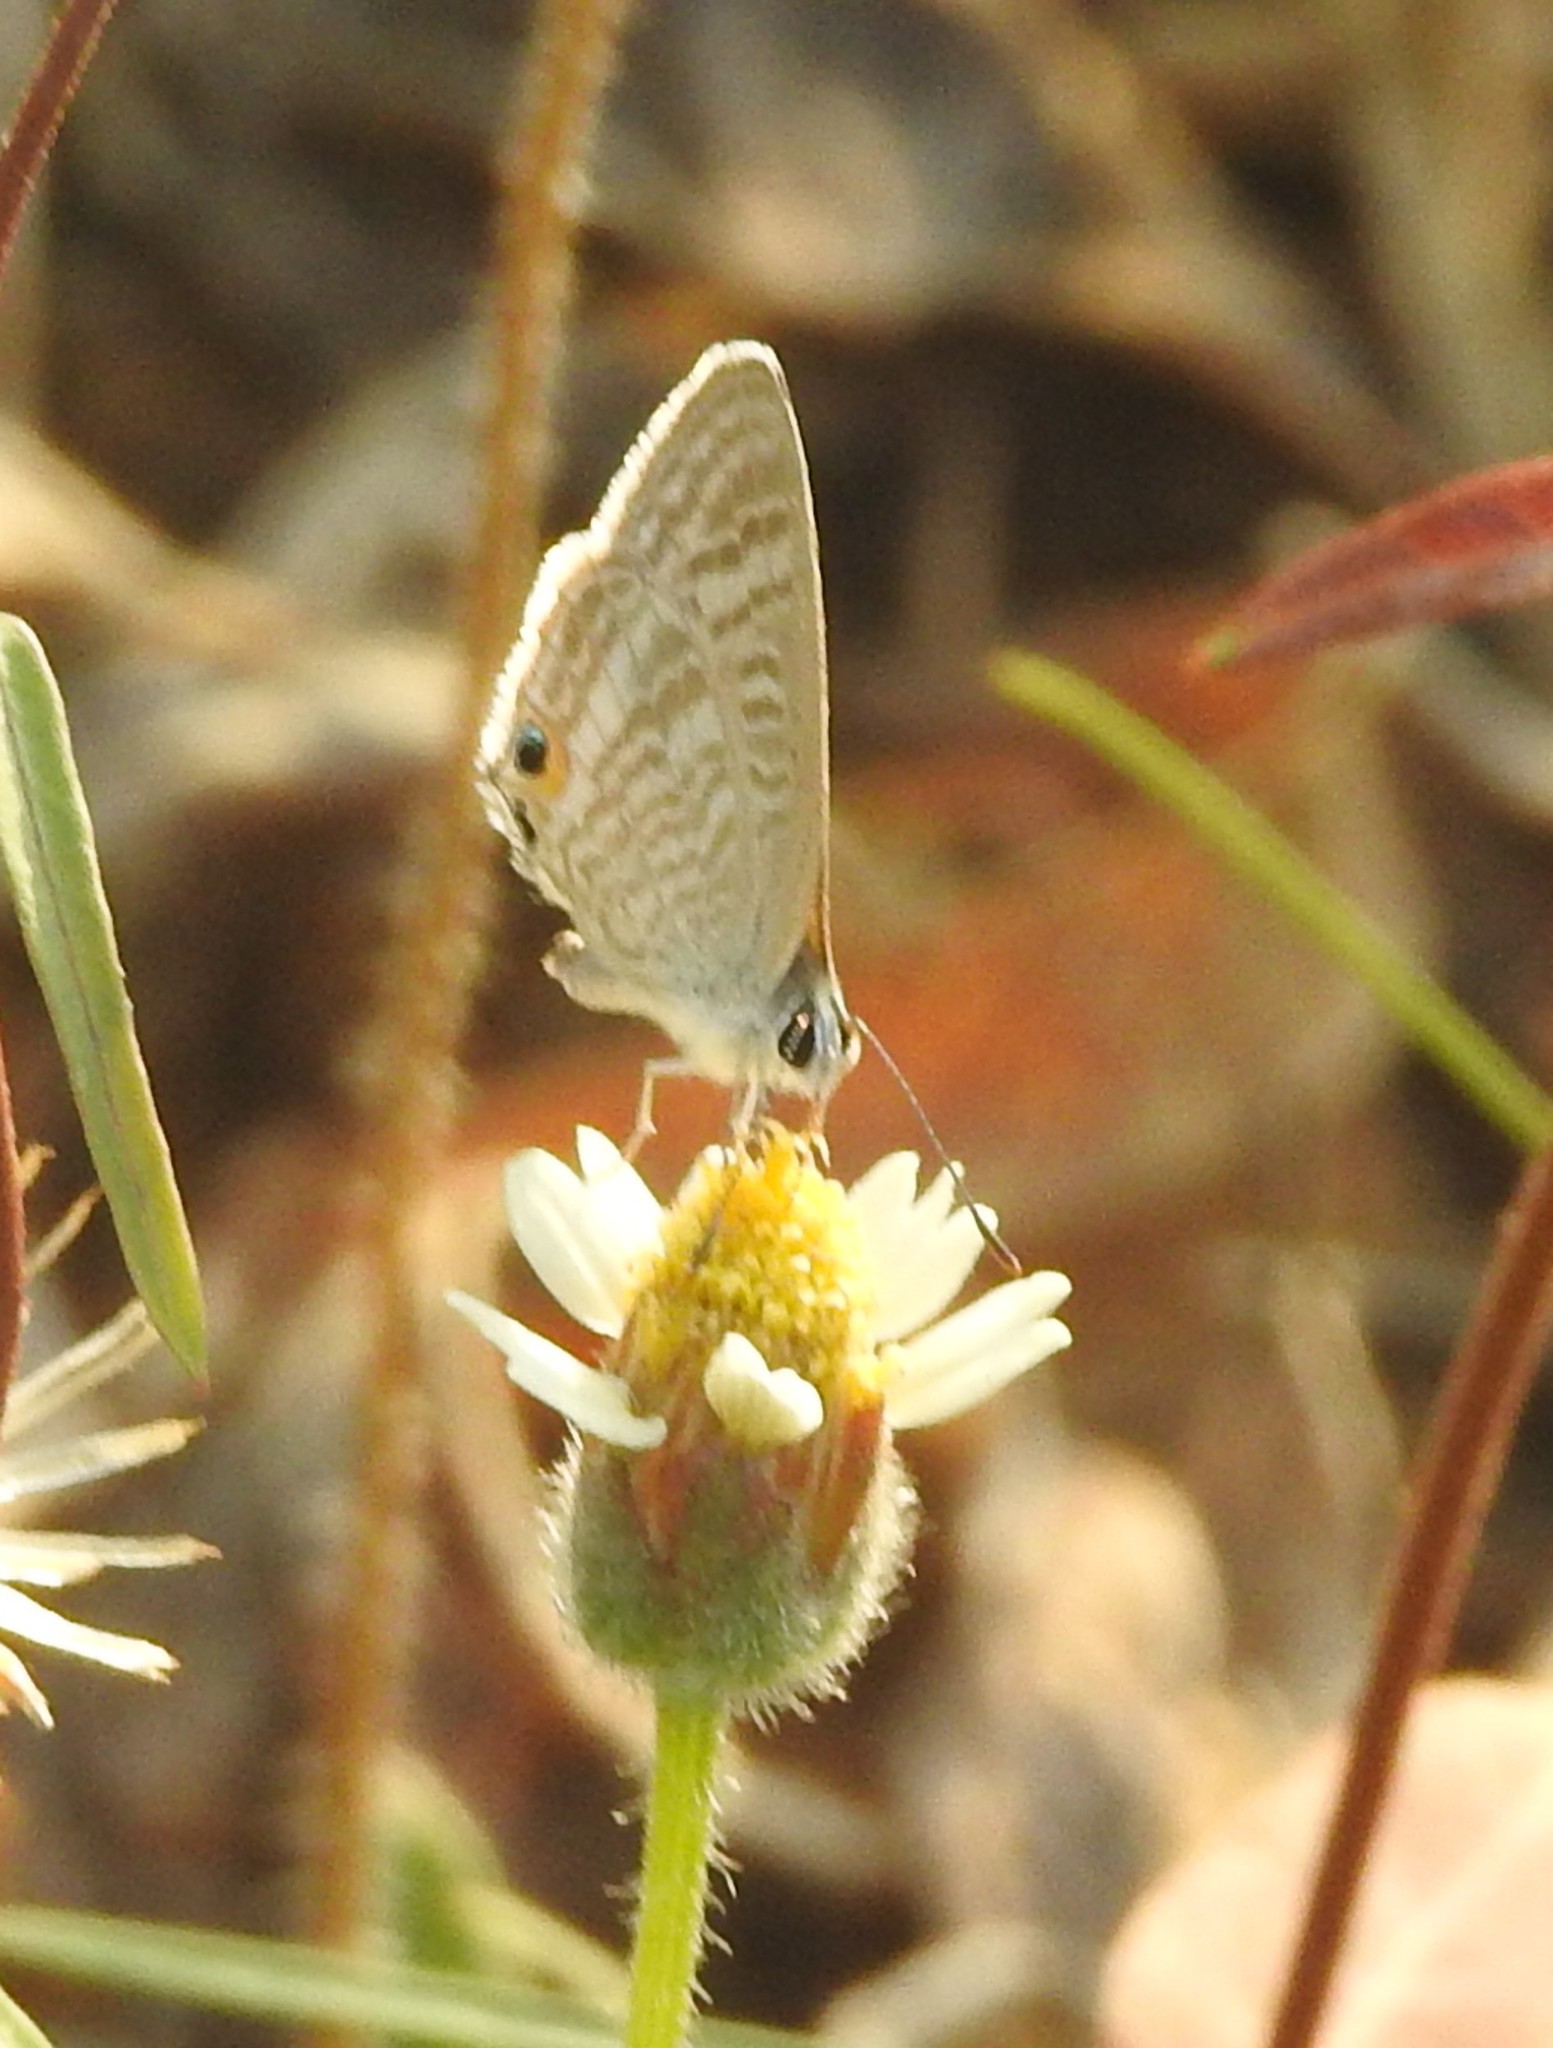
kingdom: Animalia
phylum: Arthropoda
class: Insecta
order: Lepidoptera
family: Lycaenidae
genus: Lampides
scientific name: Lampides boeticus
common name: Long-tailed blue
